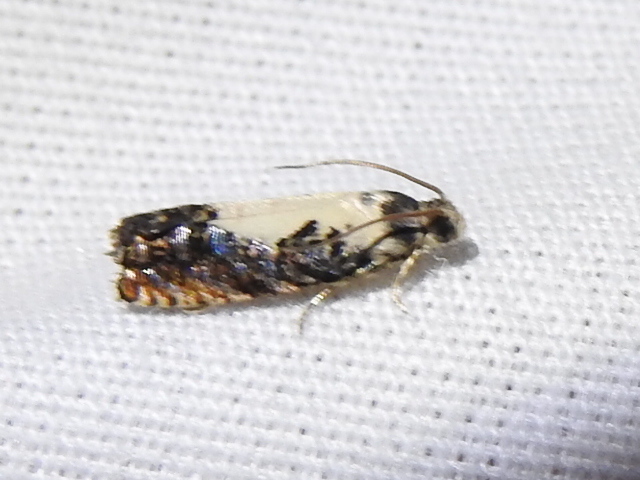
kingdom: Animalia
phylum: Arthropoda
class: Insecta
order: Lepidoptera
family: Tortricidae
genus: Pammene
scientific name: Pammene felicitana
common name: Happy pammene
